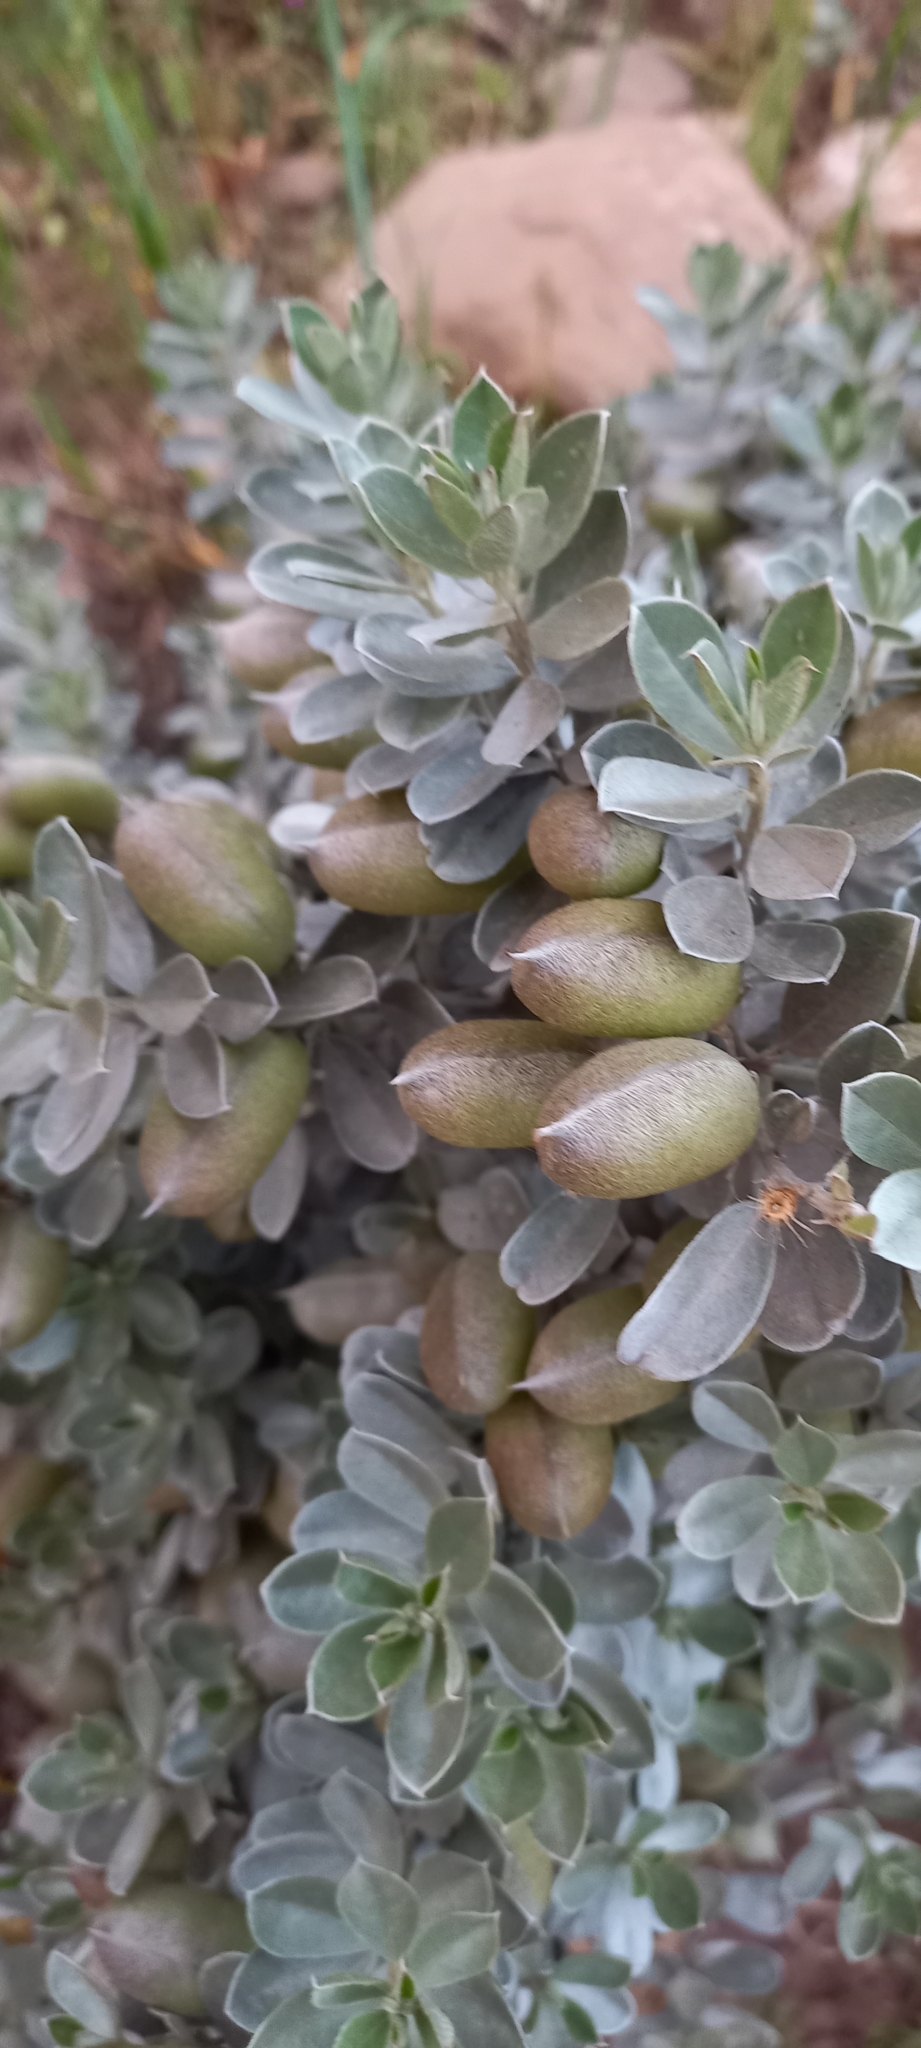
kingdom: Plantae
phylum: Tracheophyta
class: Magnoliopsida
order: Fabales
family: Fabaceae
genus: Podalyria
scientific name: Podalyria sericea
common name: Silver podalyria
